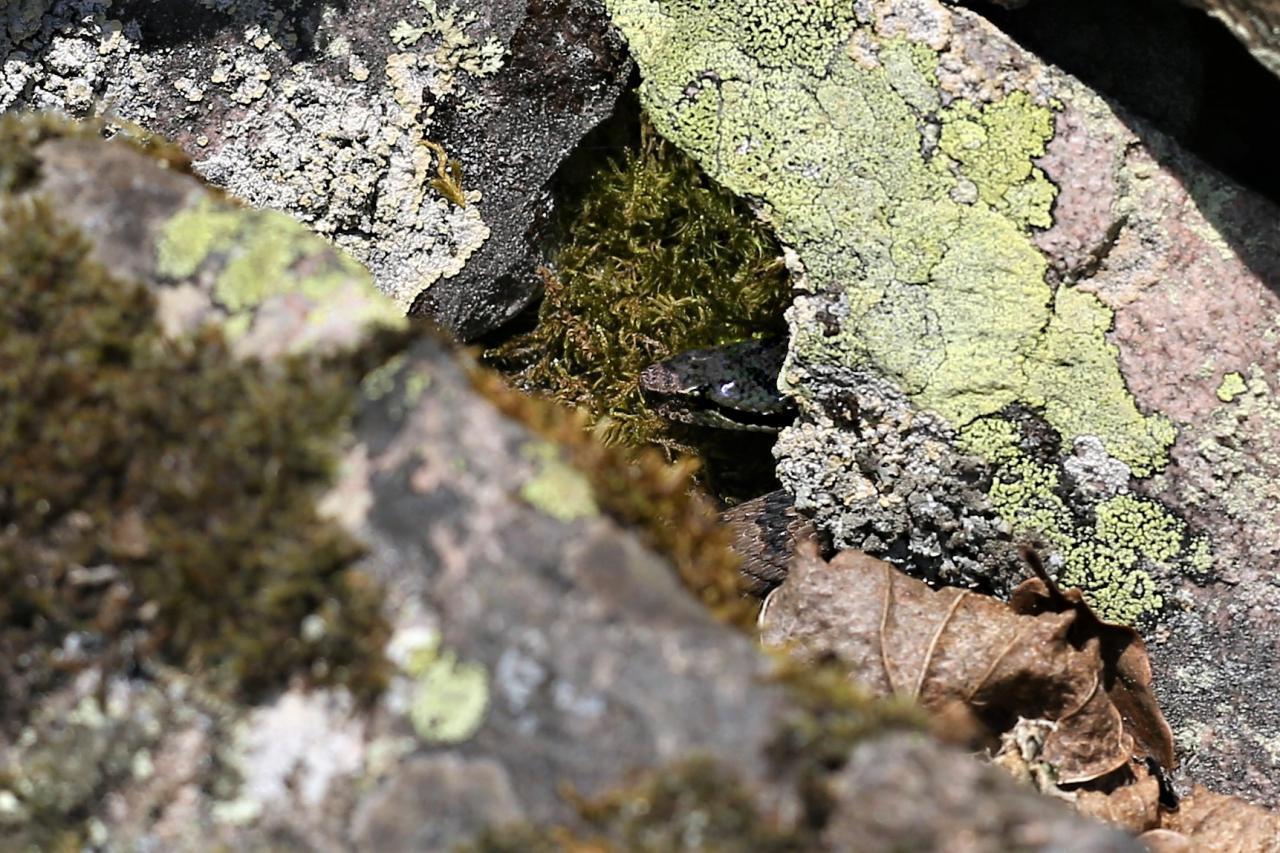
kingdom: Animalia
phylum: Chordata
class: Squamata
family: Viperidae
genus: Vipera
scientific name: Vipera aspis
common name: Asp viper
